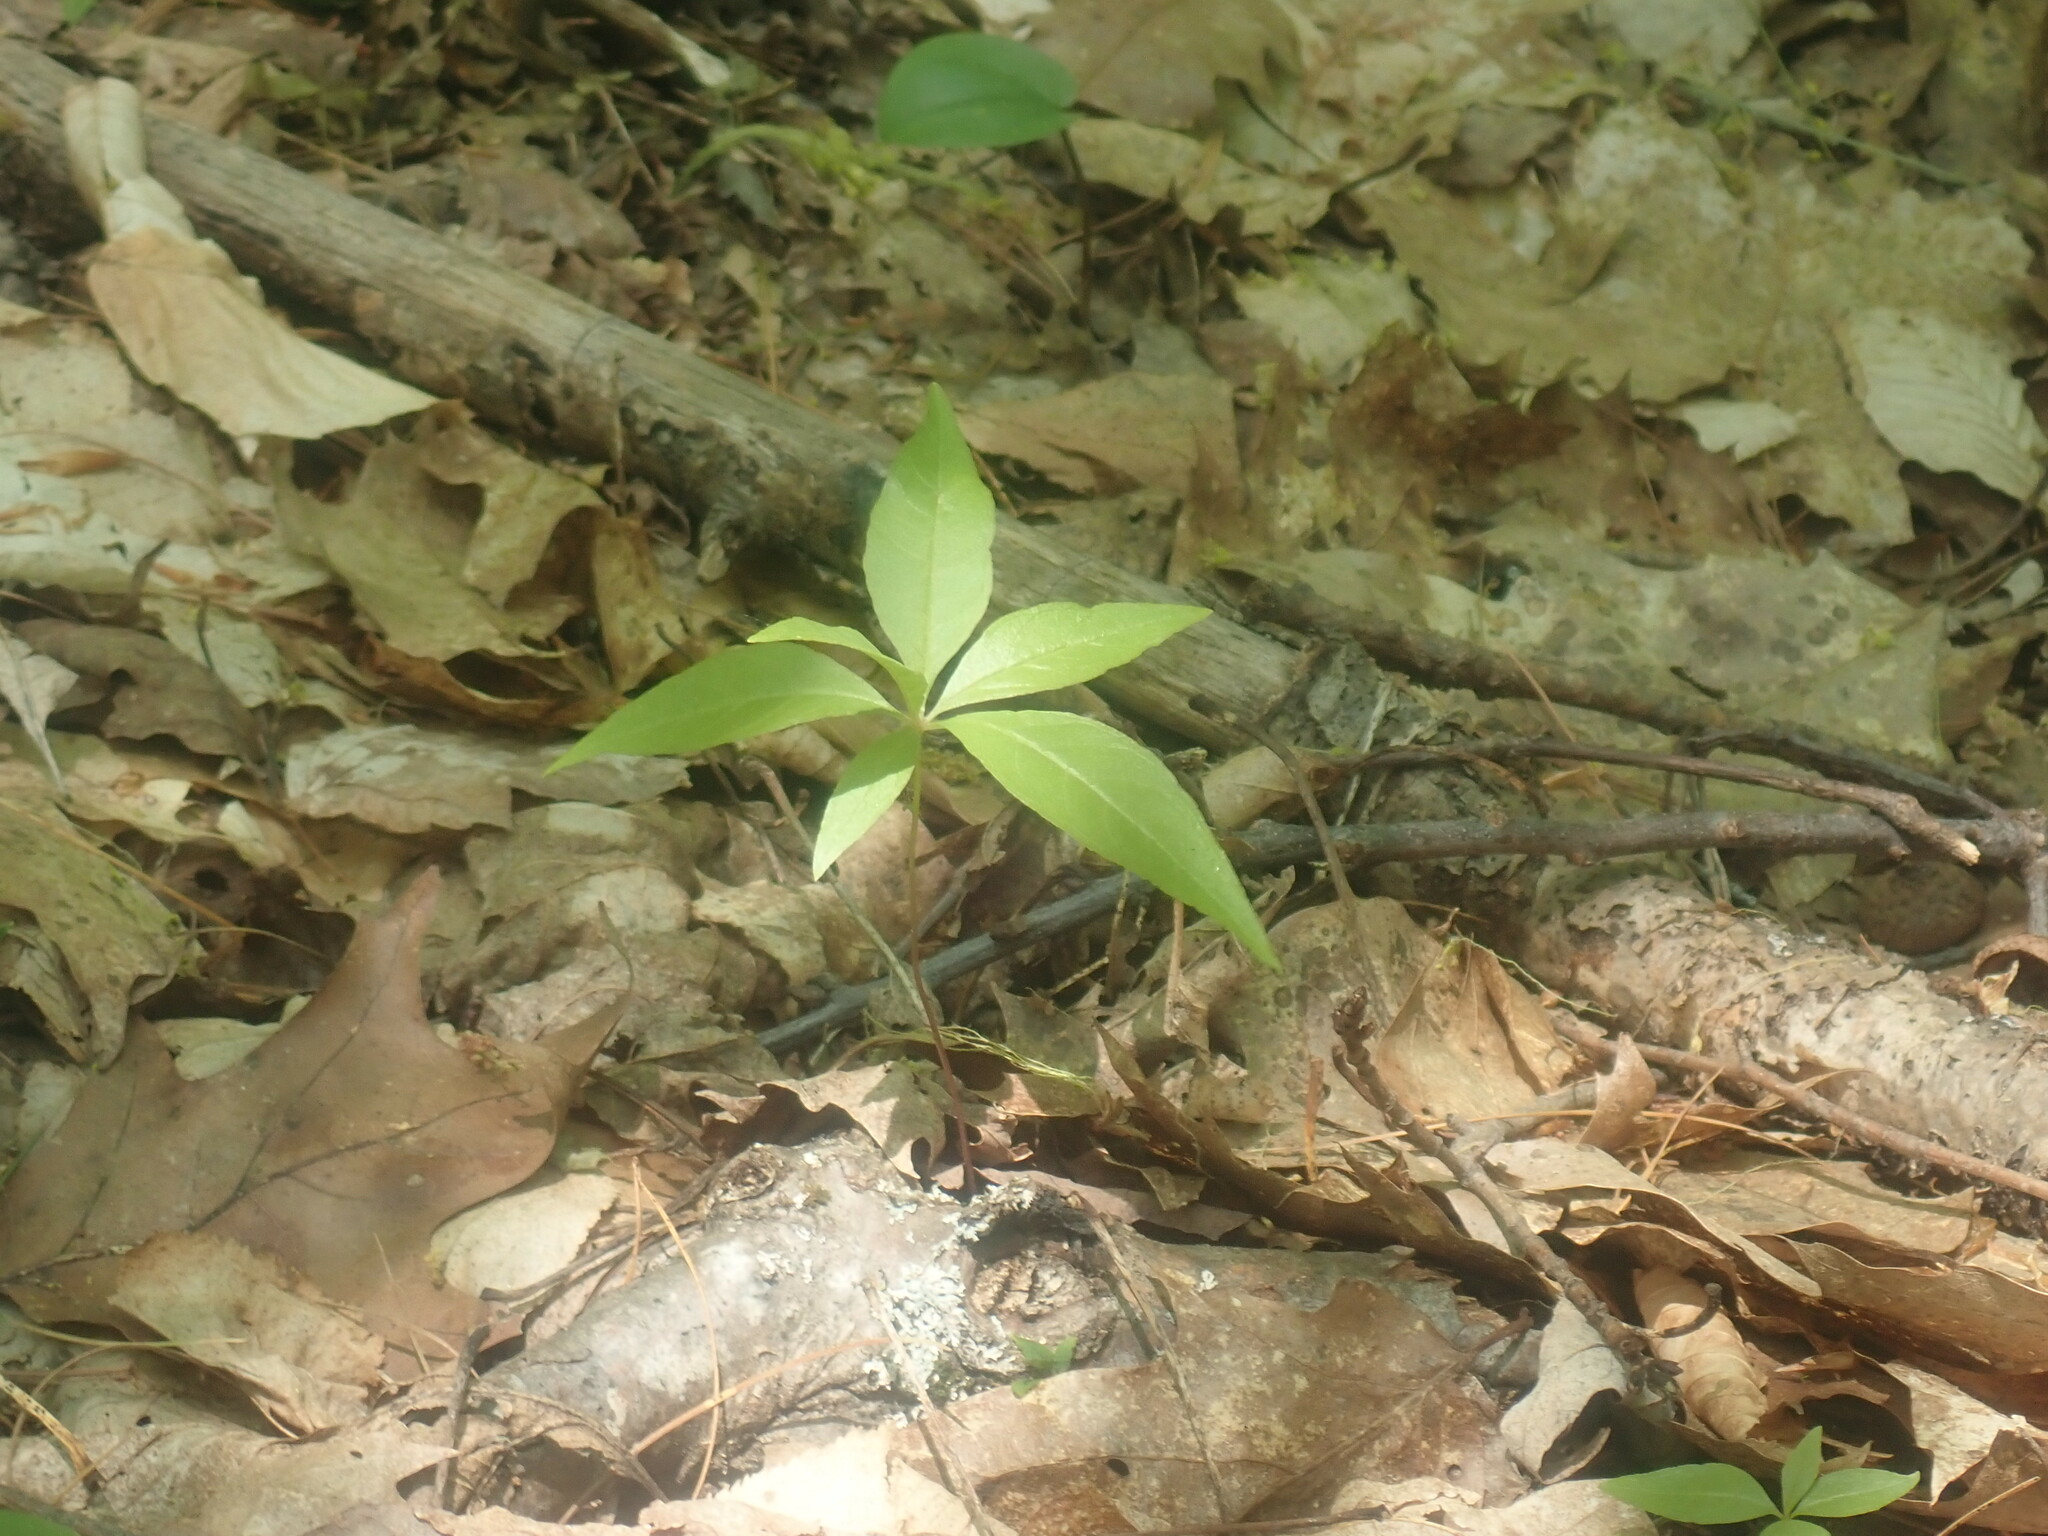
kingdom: Plantae
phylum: Tracheophyta
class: Magnoliopsida
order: Ericales
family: Primulaceae
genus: Lysimachia
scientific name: Lysimachia borealis
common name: American starflower
